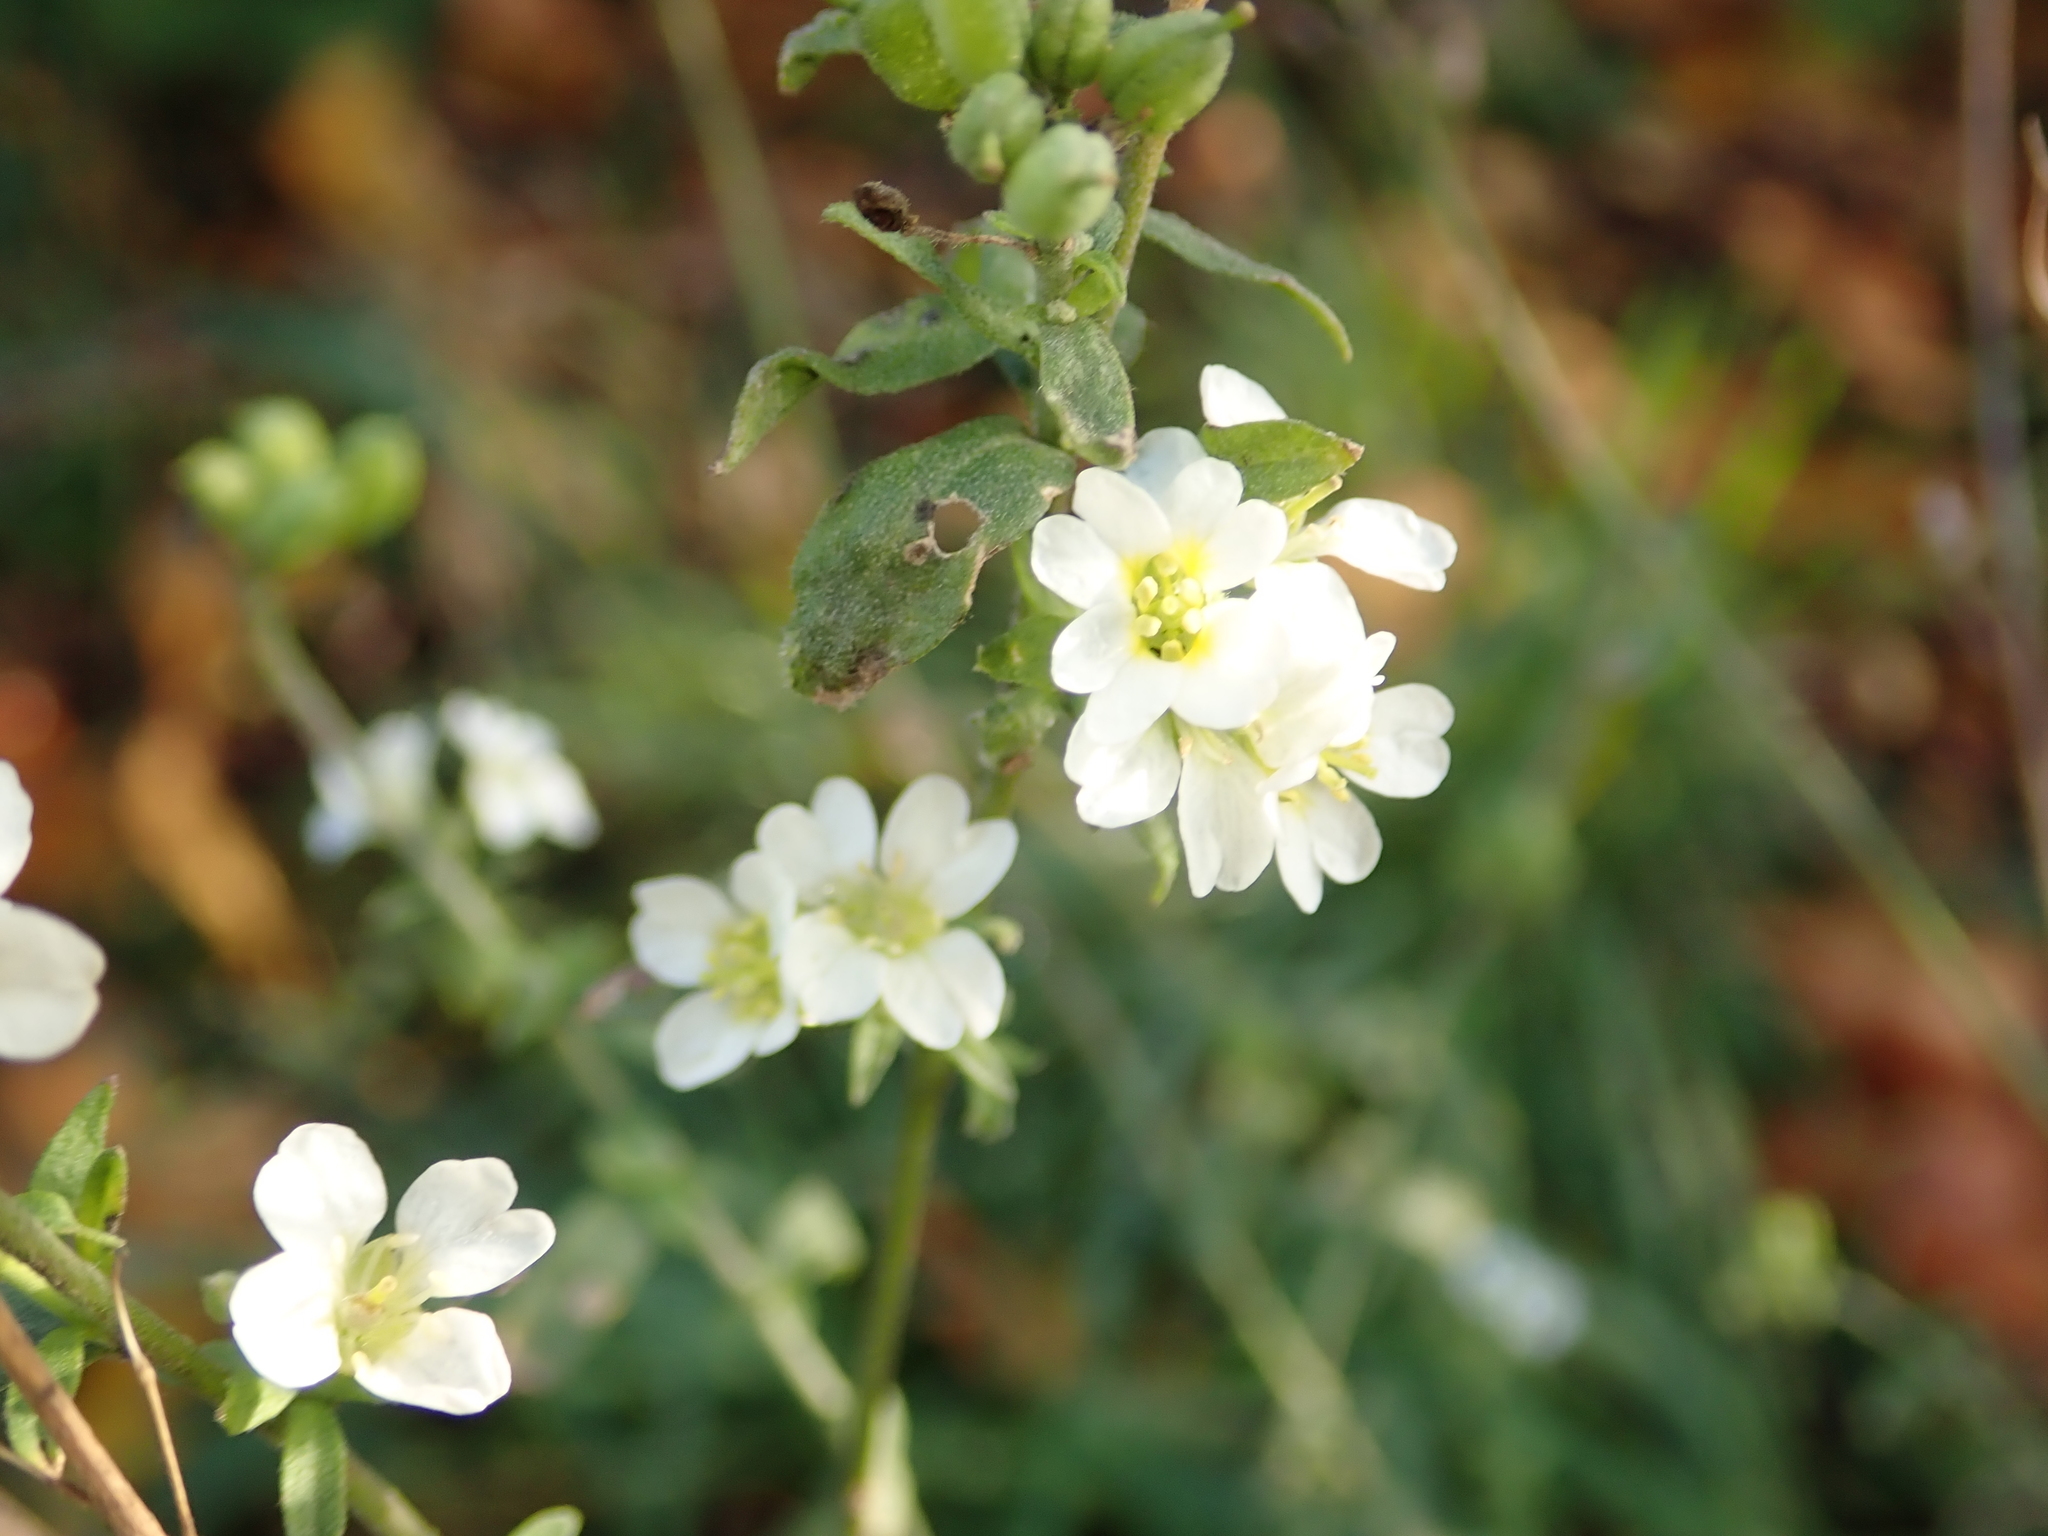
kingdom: Plantae
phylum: Tracheophyta
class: Magnoliopsida
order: Brassicales
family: Brassicaceae
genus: Berteroa
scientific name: Berteroa incana
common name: Hoary alison
